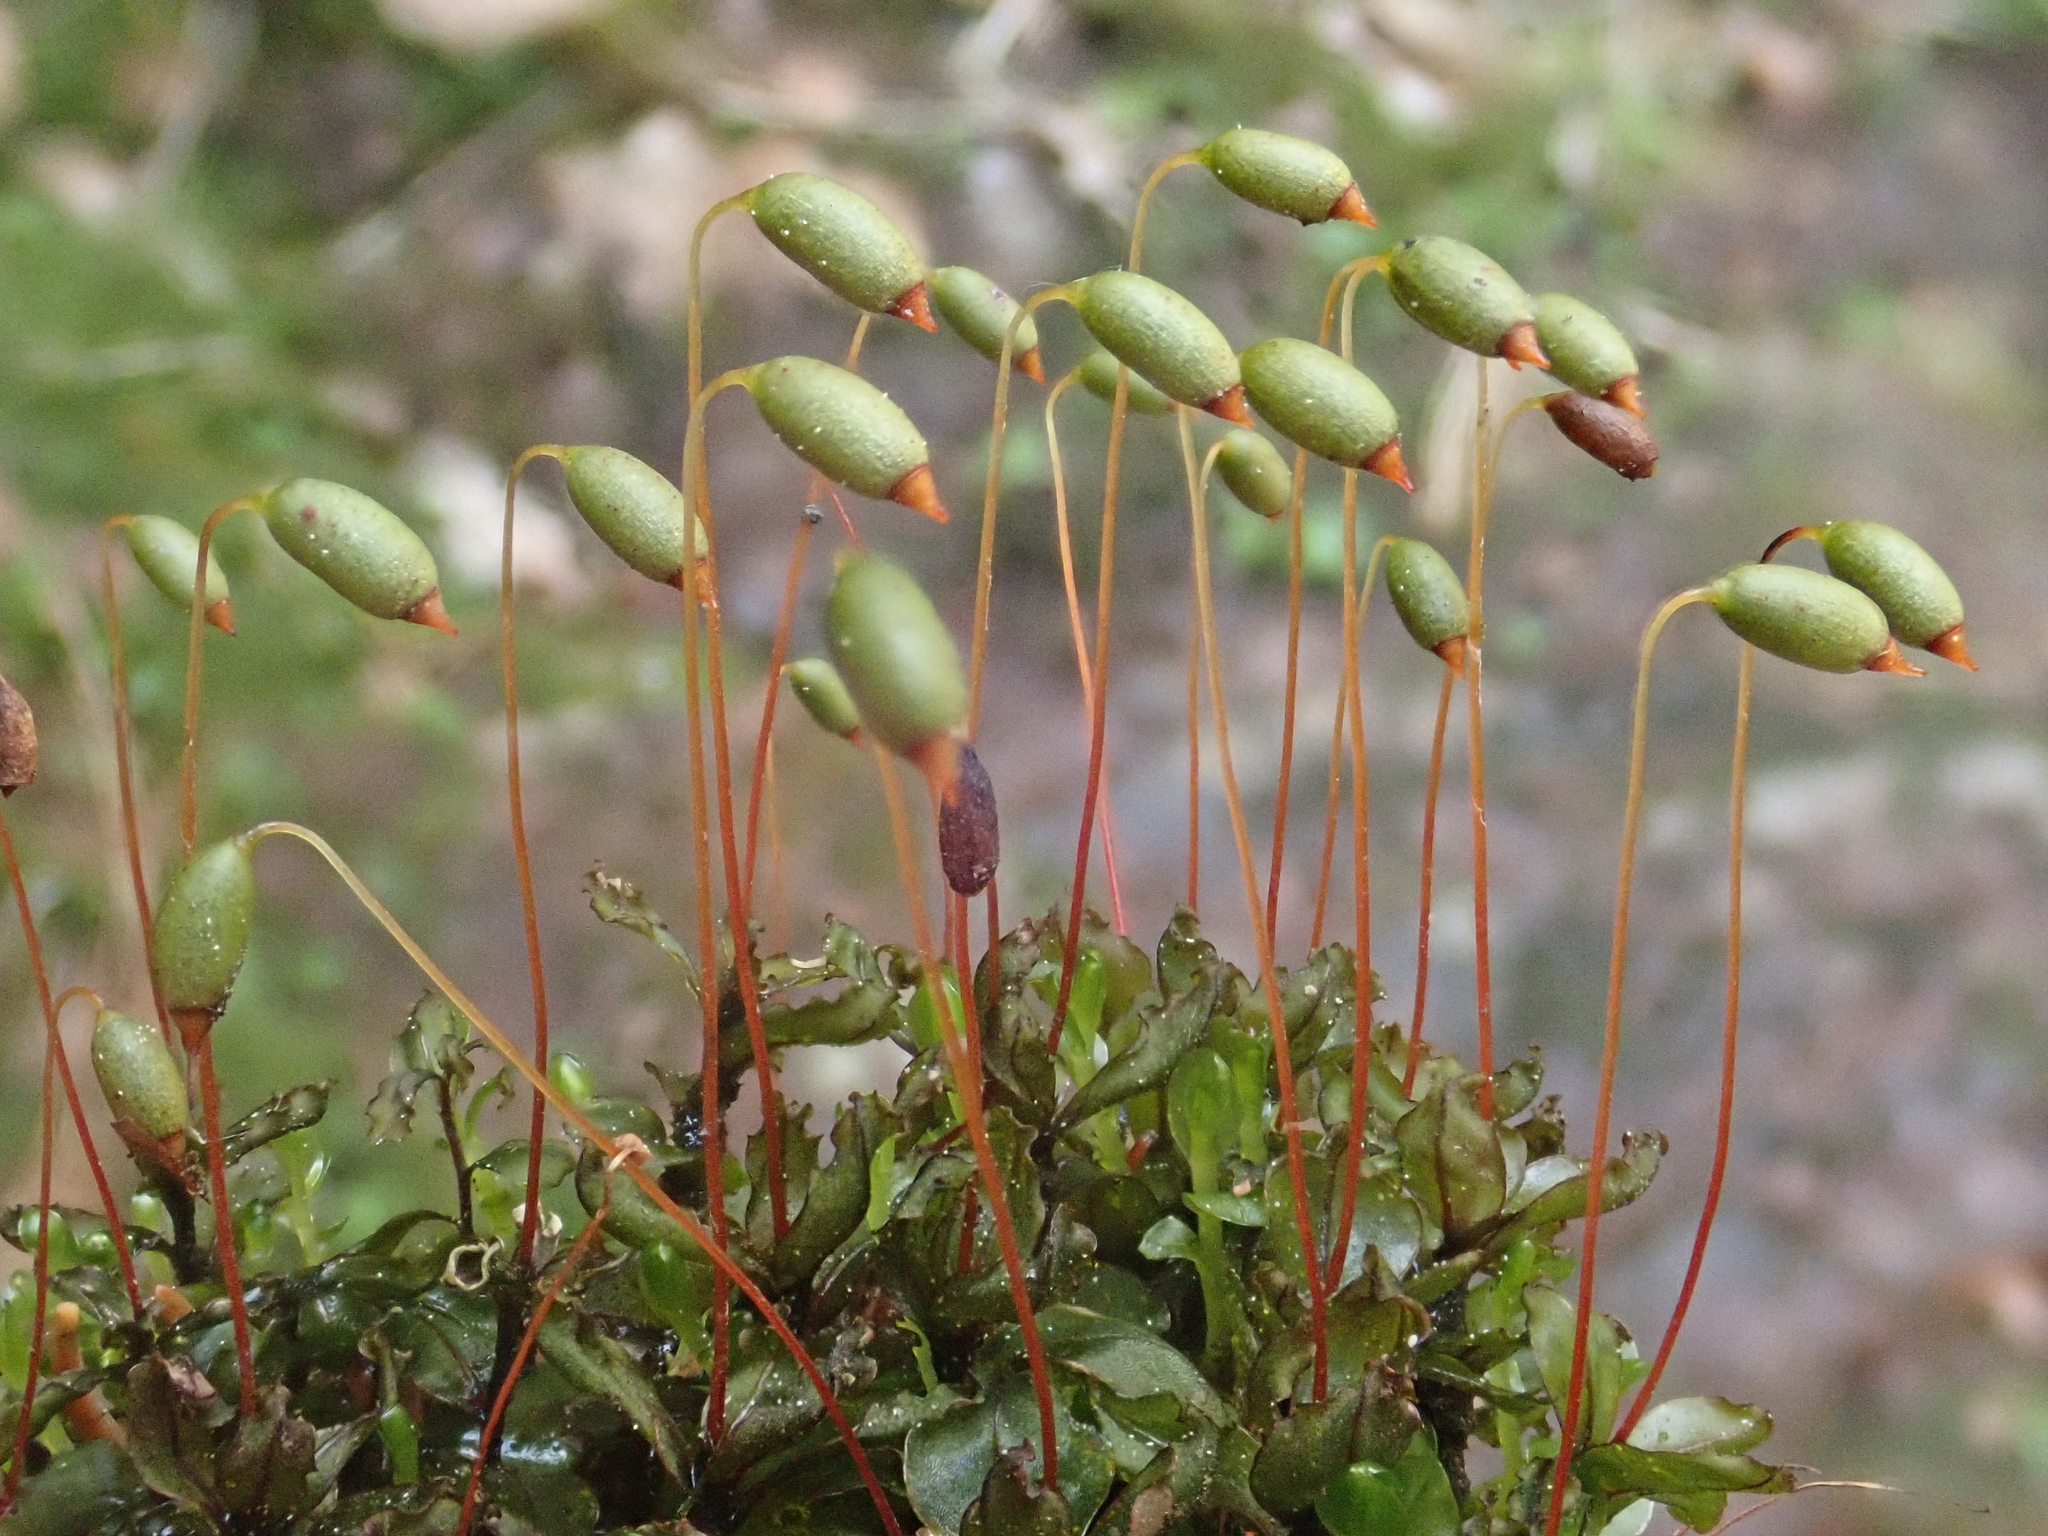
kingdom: Plantae
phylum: Bryophyta
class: Bryopsida
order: Bryales
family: Mniaceae
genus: Rhizomnium
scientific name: Rhizomnium punctatum
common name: Dotted leafy moss
